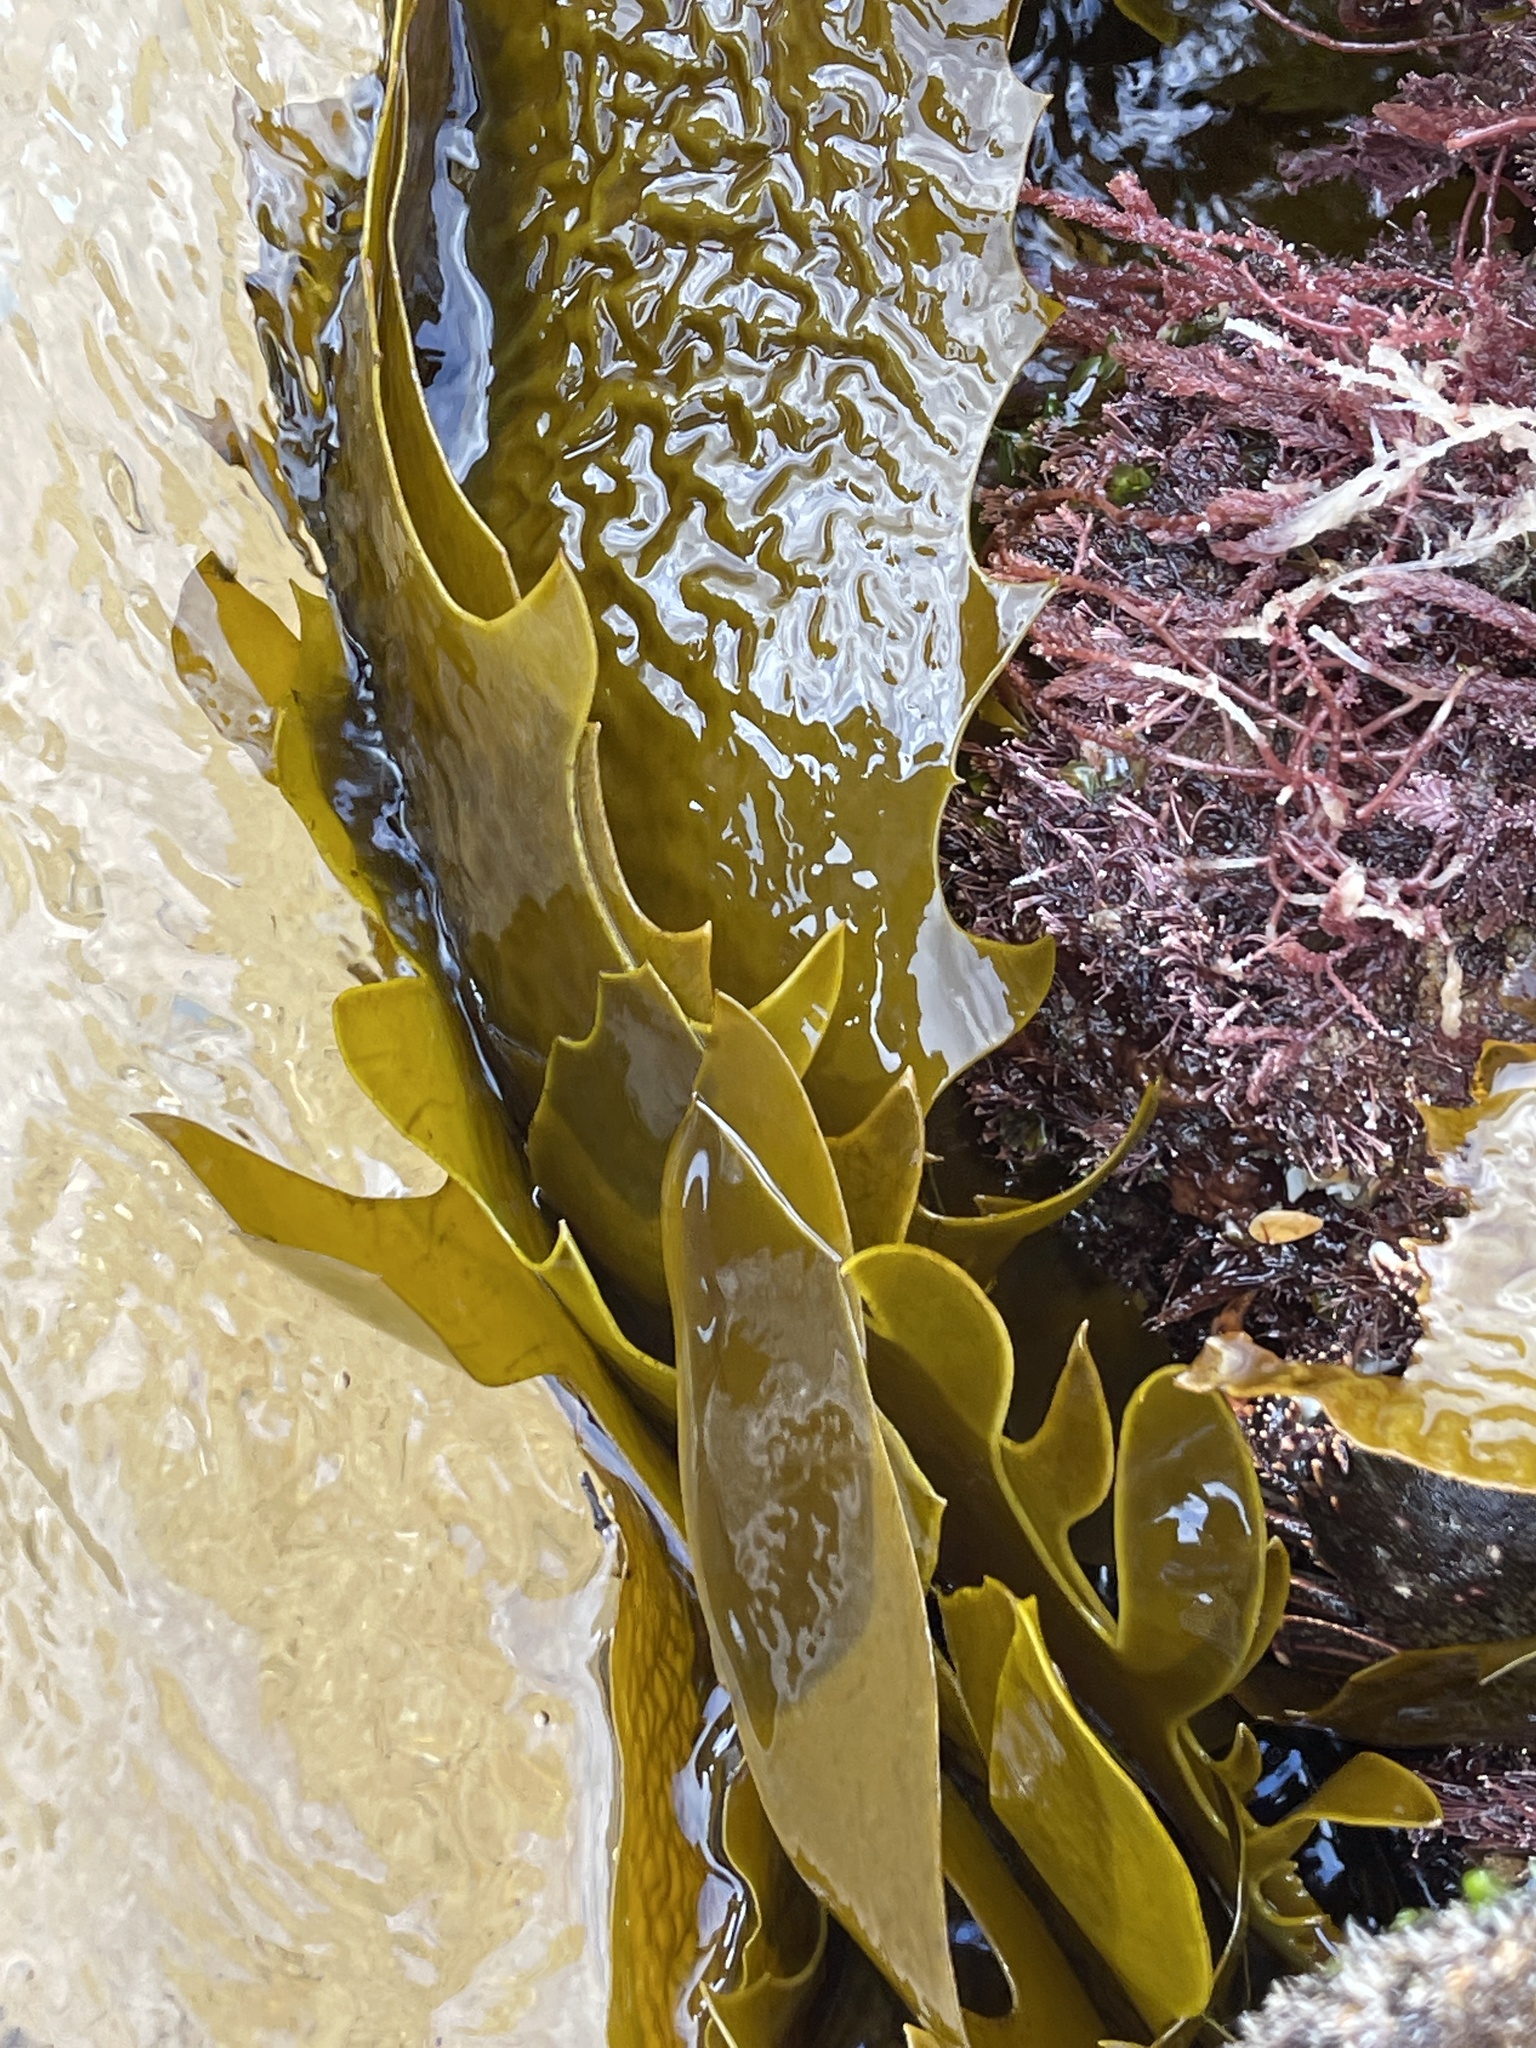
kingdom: Chromista
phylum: Ochrophyta
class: Phaeophyceae
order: Laminariales
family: Lessoniaceae
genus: Ecklonia
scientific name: Ecklonia radiata
